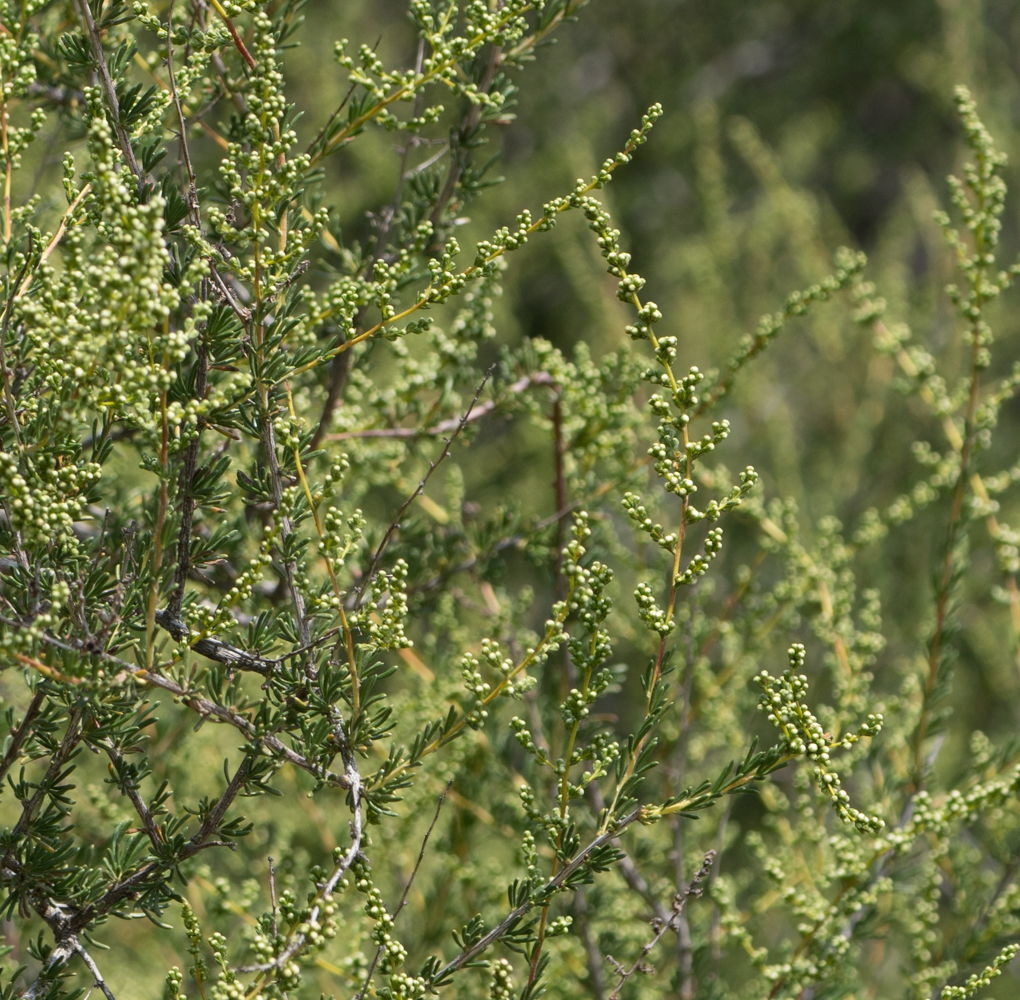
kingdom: Plantae
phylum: Tracheophyta
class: Magnoliopsida
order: Rosales
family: Rosaceae
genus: Adenostoma
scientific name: Adenostoma fasciculatum
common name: Chamise
